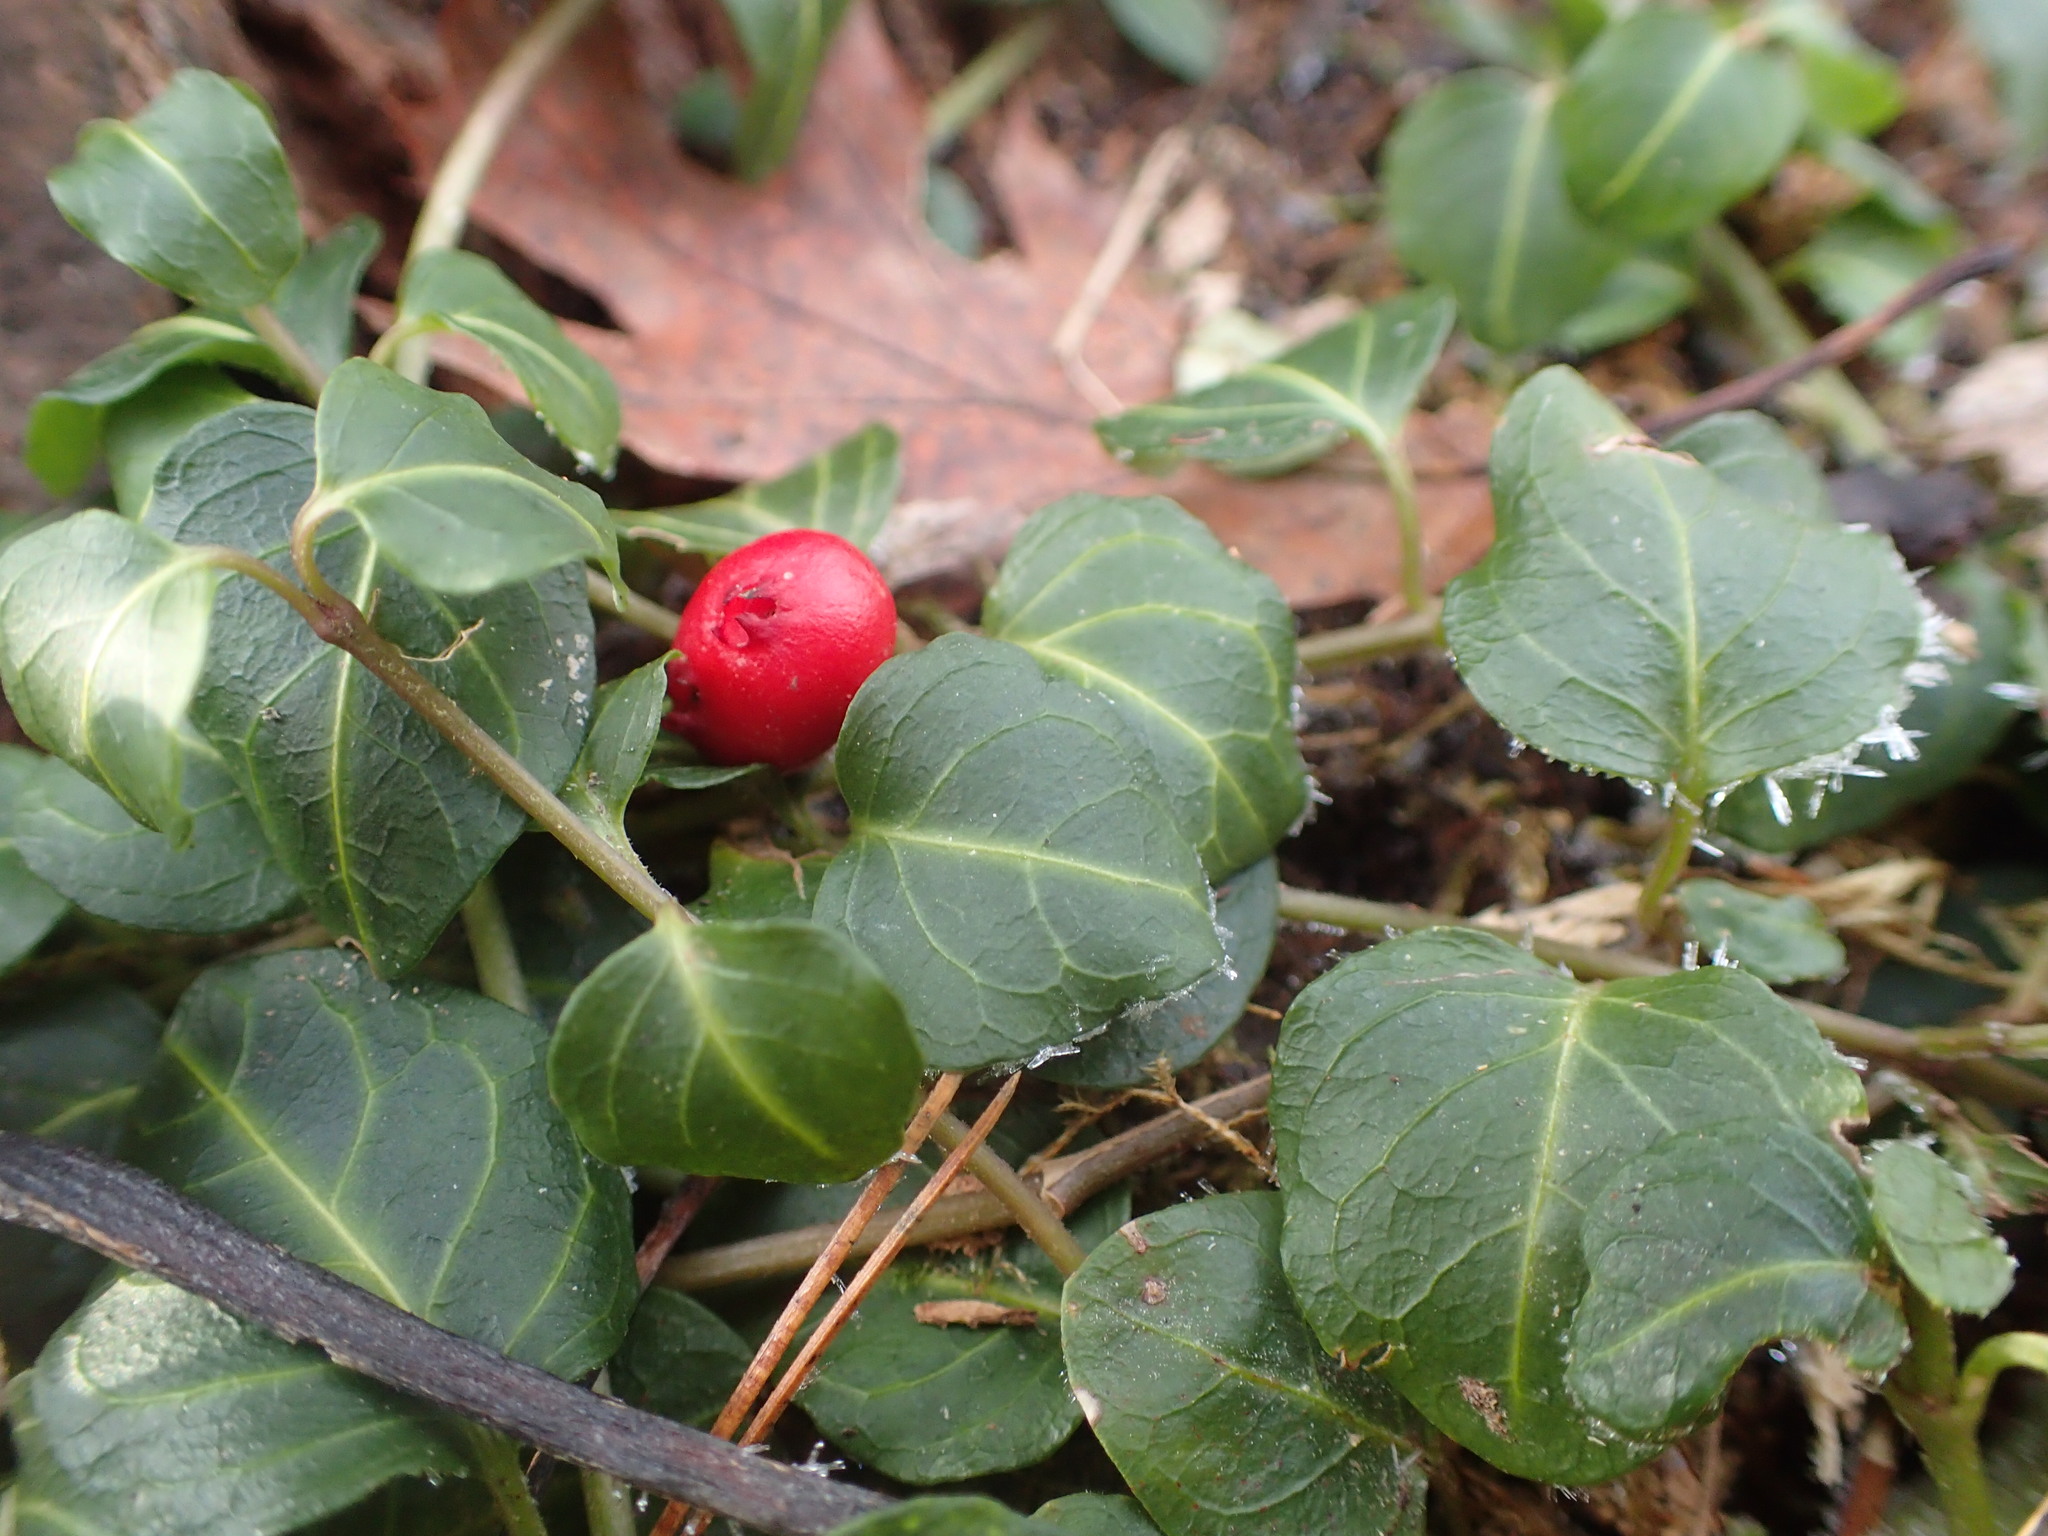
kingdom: Plantae
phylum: Tracheophyta
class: Magnoliopsida
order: Gentianales
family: Rubiaceae
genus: Mitchella
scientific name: Mitchella repens
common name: Partridge-berry
